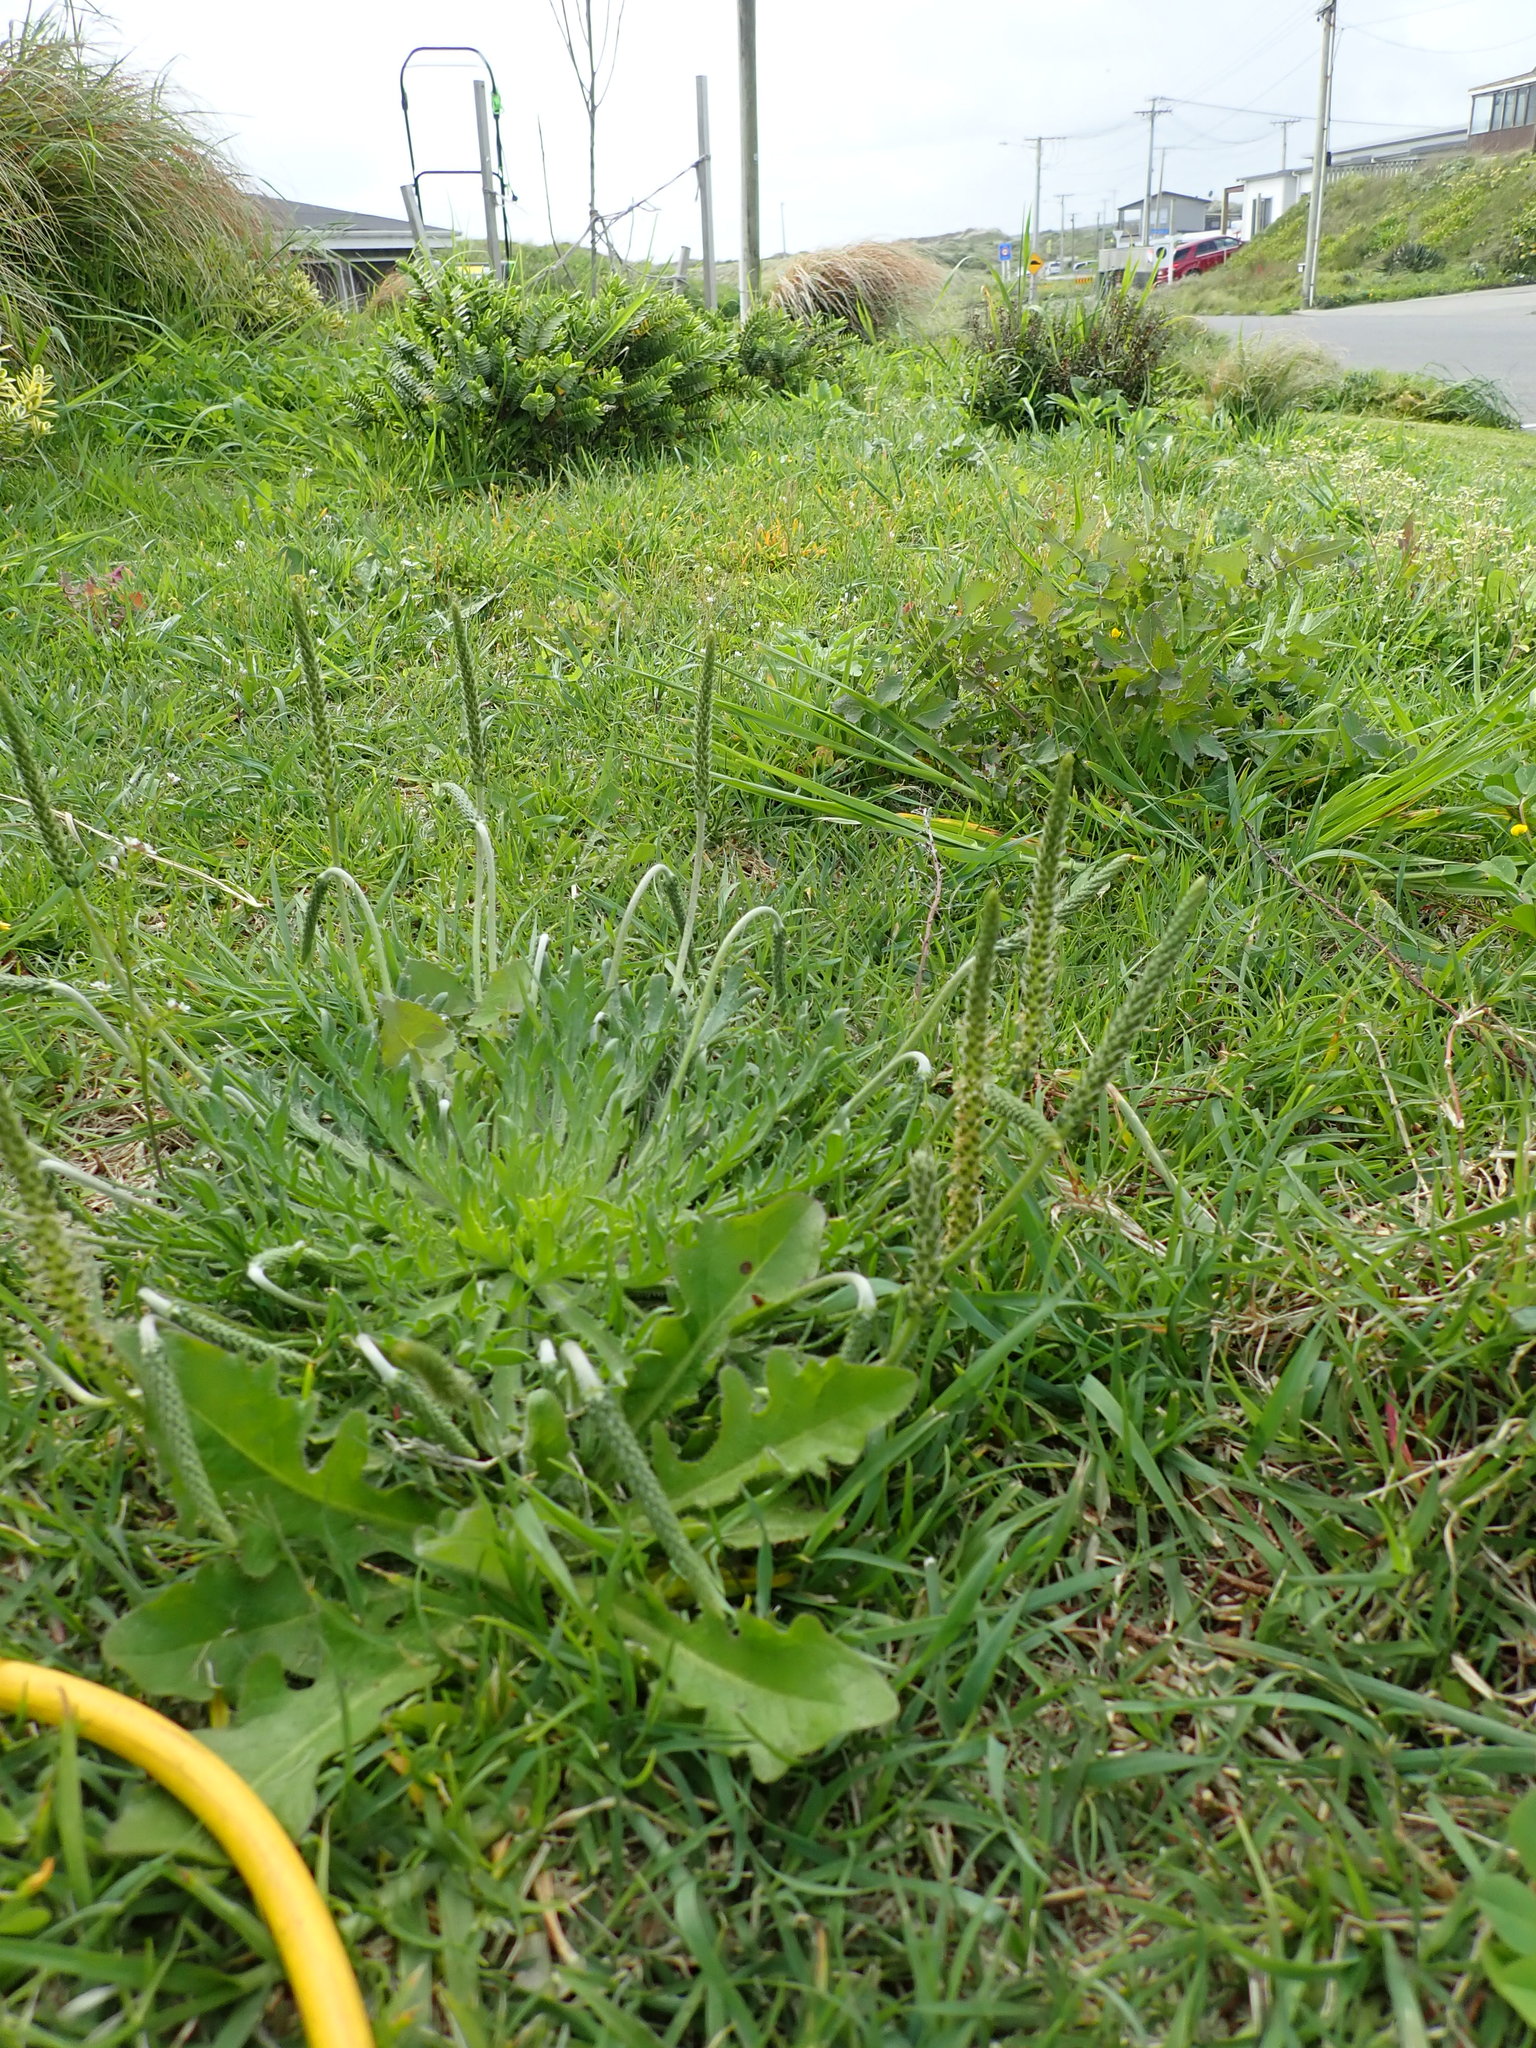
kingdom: Plantae
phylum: Tracheophyta
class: Magnoliopsida
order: Lamiales
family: Plantaginaceae
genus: Plantago
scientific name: Plantago coronopus
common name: Buck's-horn plantain
